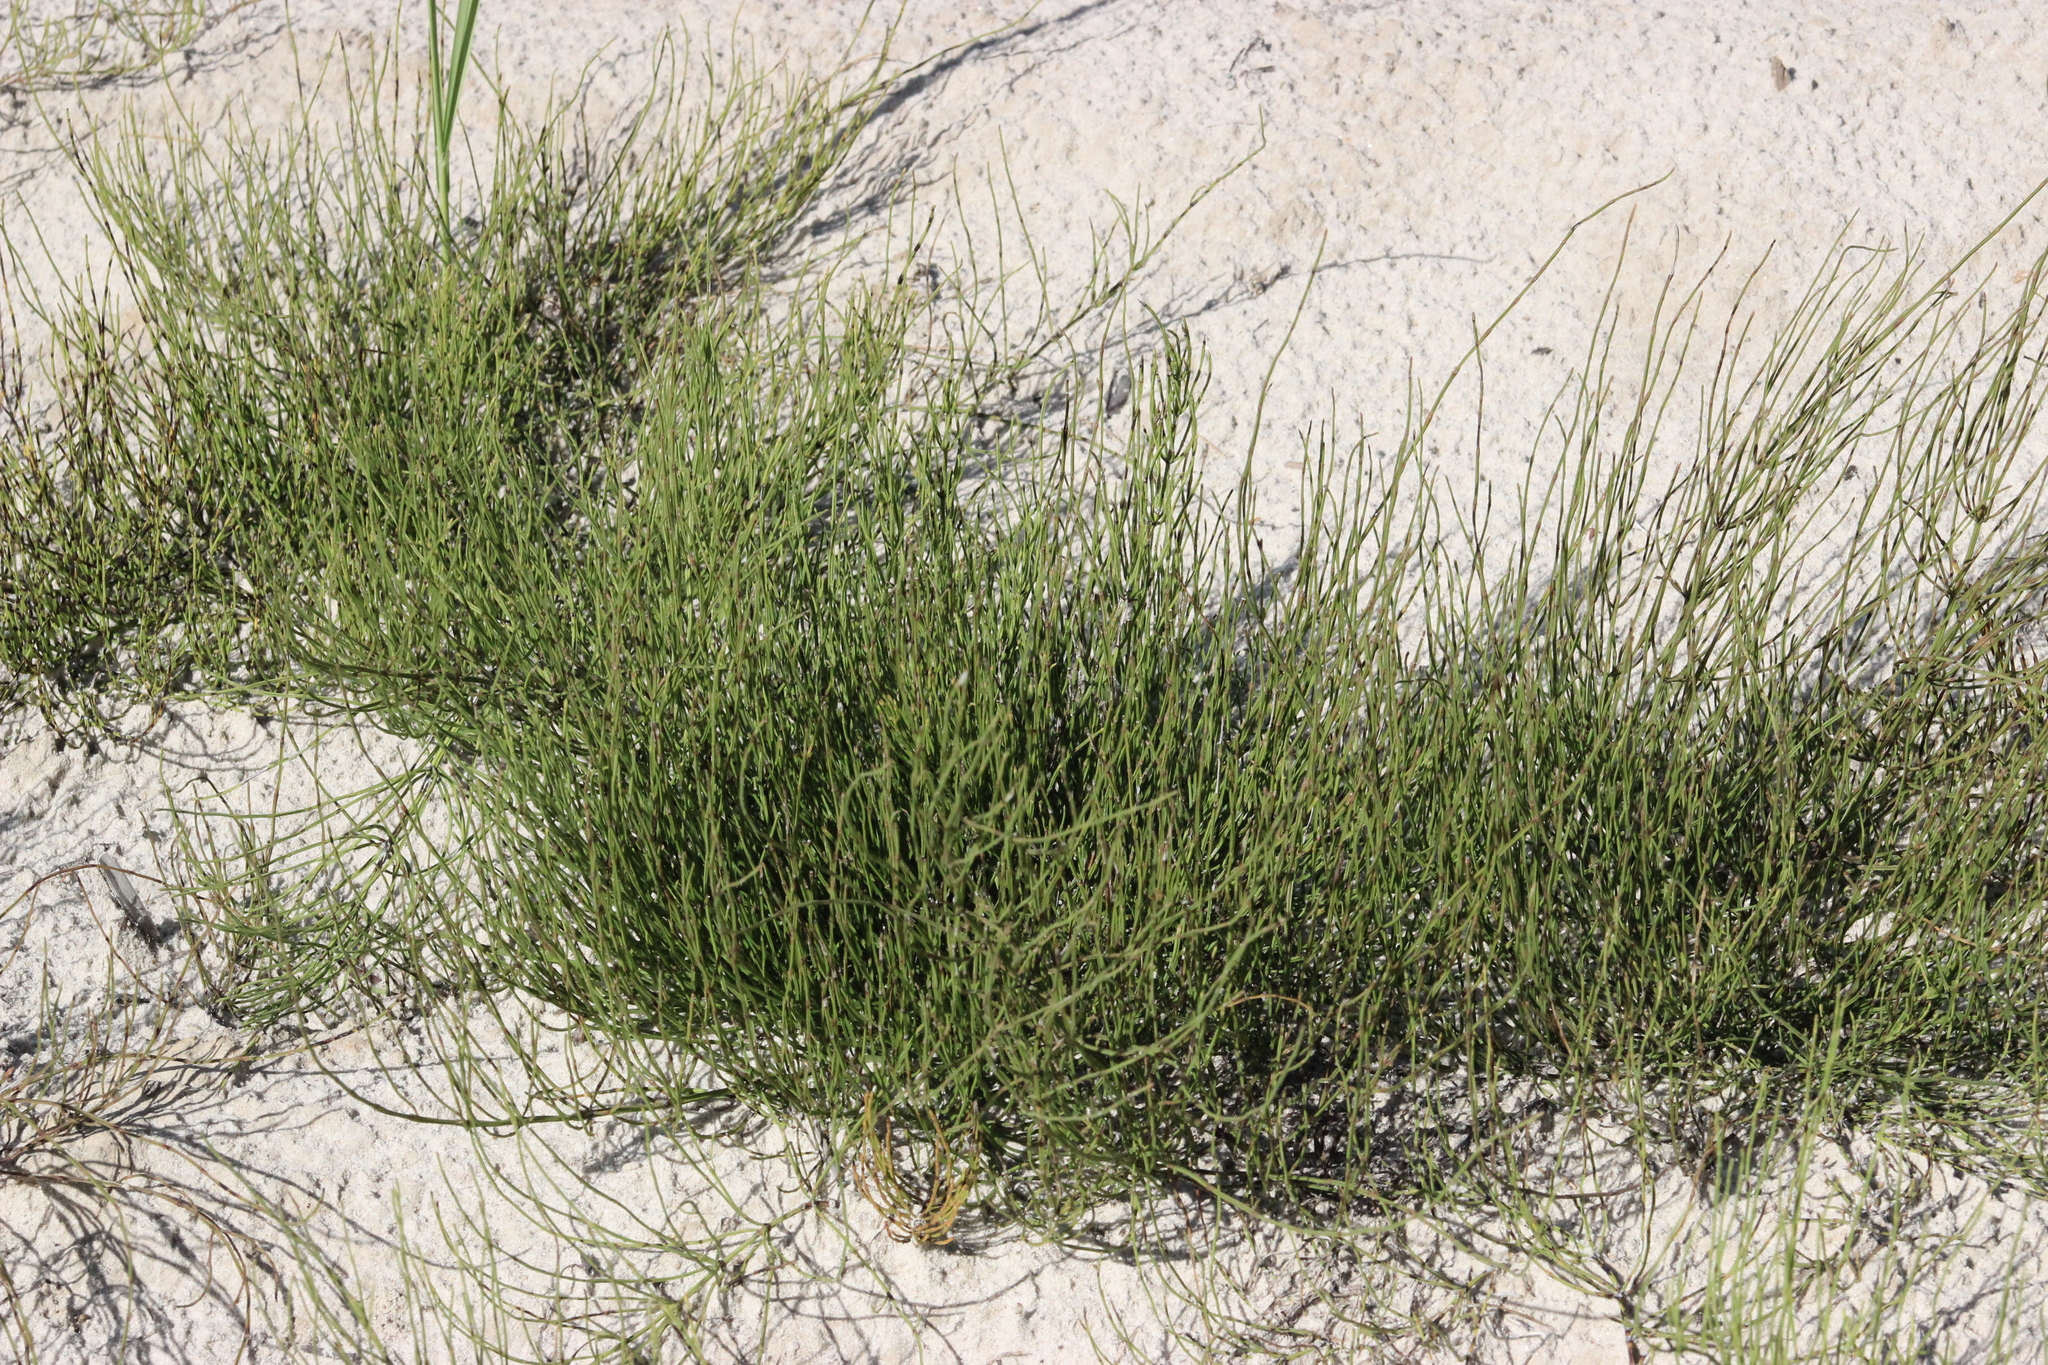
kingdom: Plantae
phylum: Tracheophyta
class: Polypodiopsida
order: Equisetales
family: Equisetaceae
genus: Equisetum
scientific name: Equisetum arvense
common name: Field horsetail
